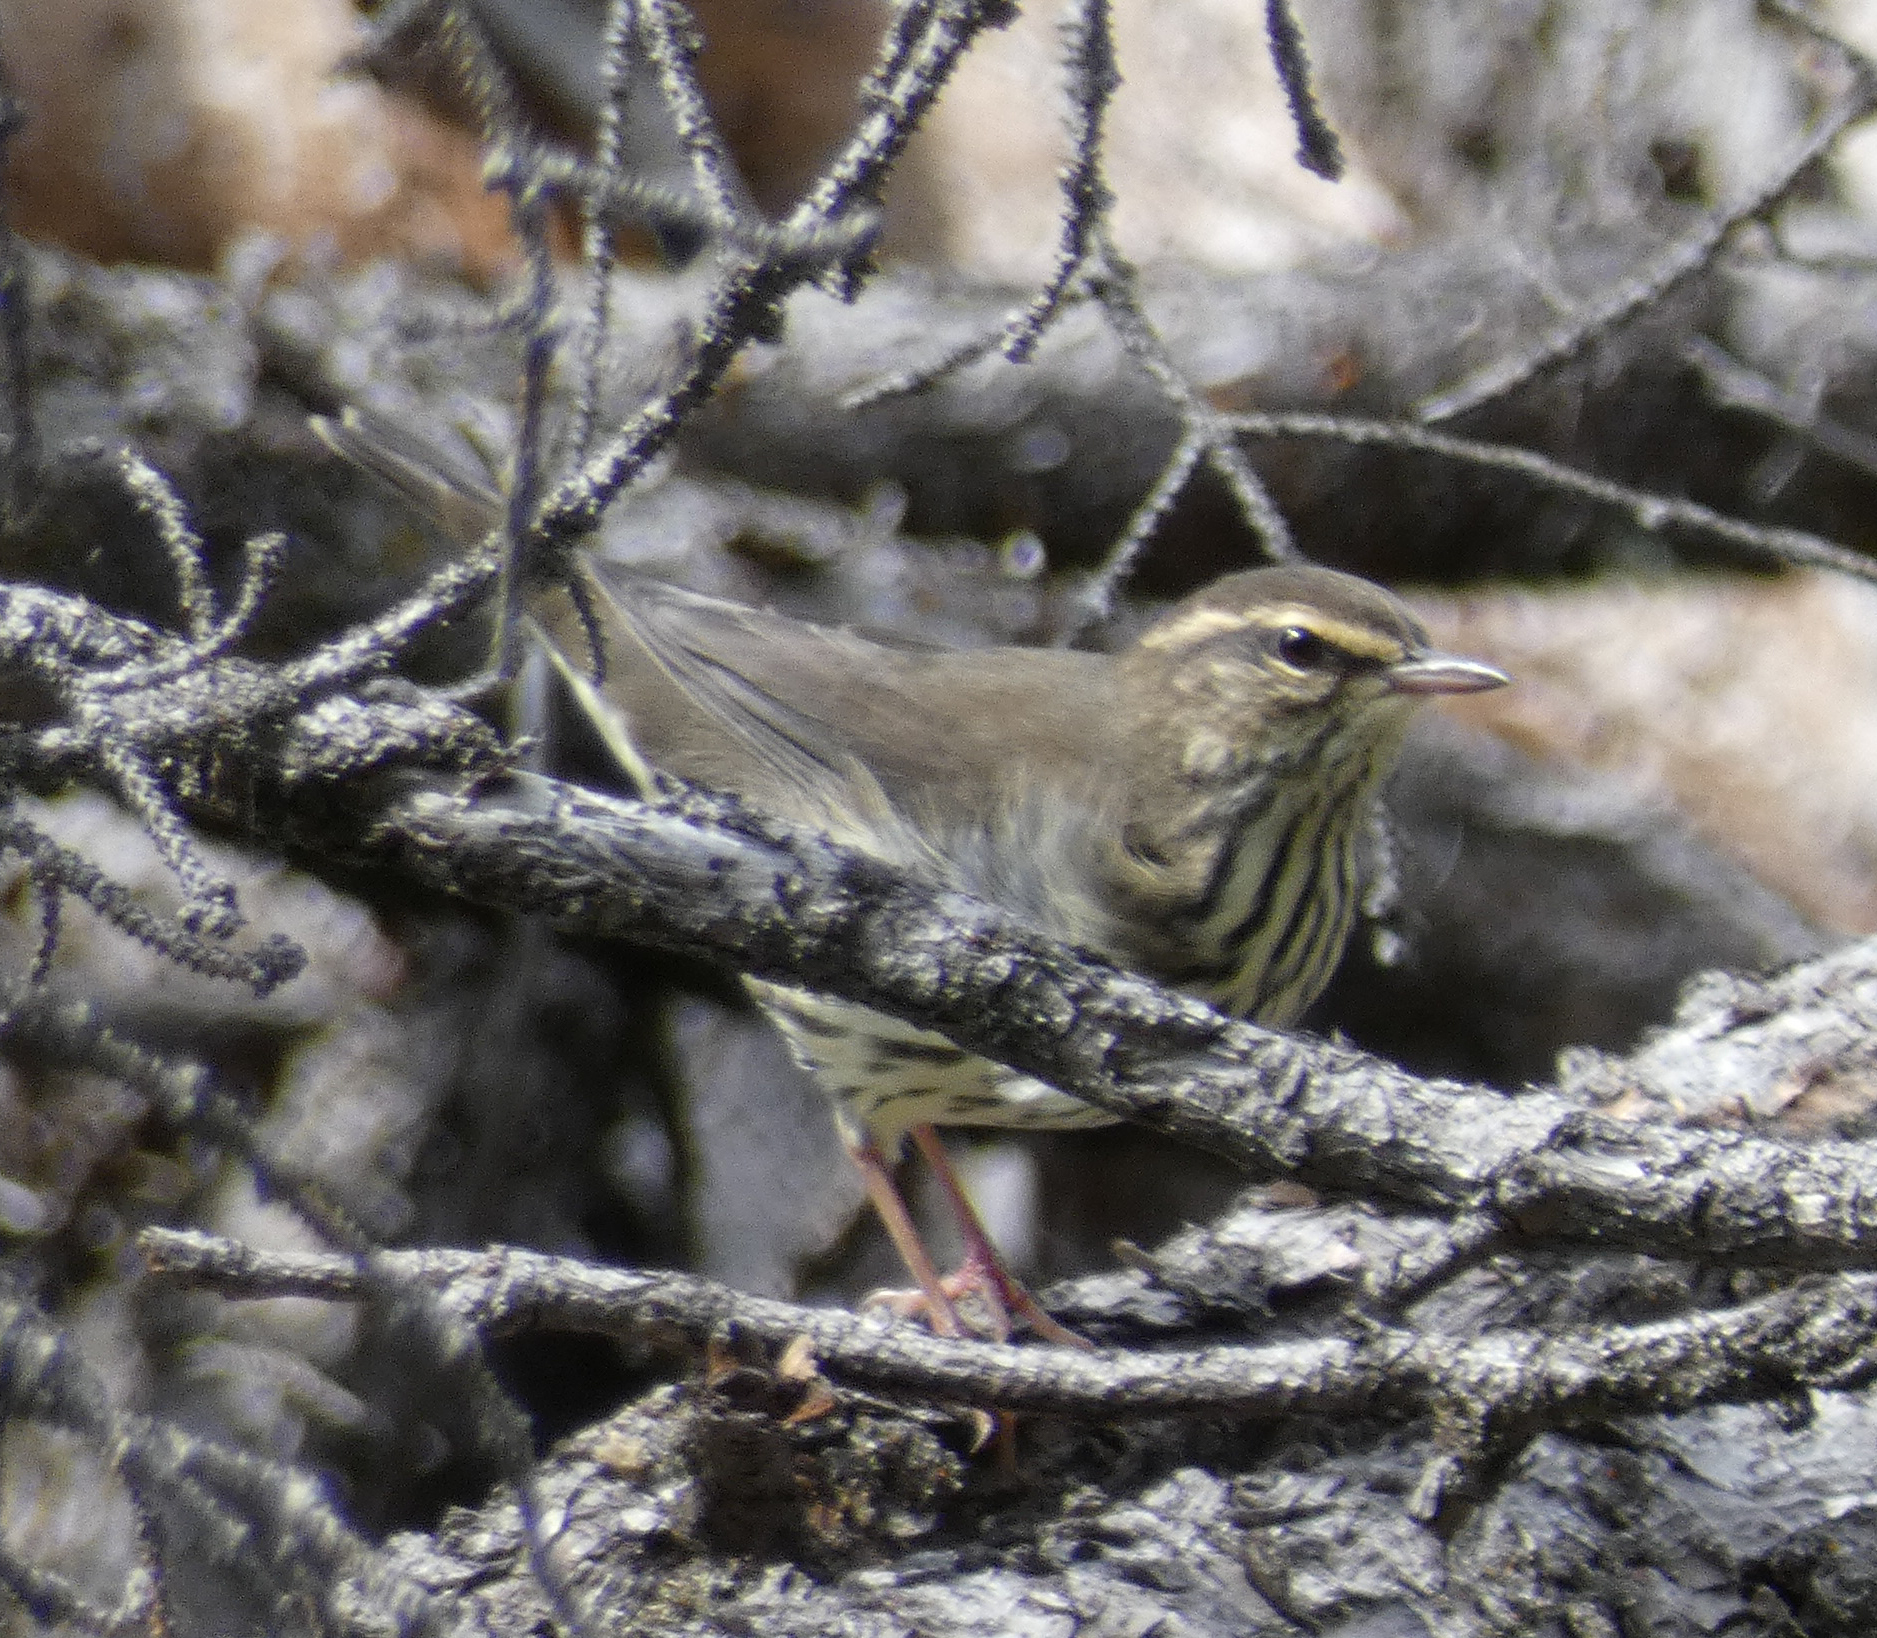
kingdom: Animalia
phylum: Chordata
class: Aves
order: Passeriformes
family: Parulidae
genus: Parkesia
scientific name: Parkesia noveboracensis
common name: Northern waterthrush
